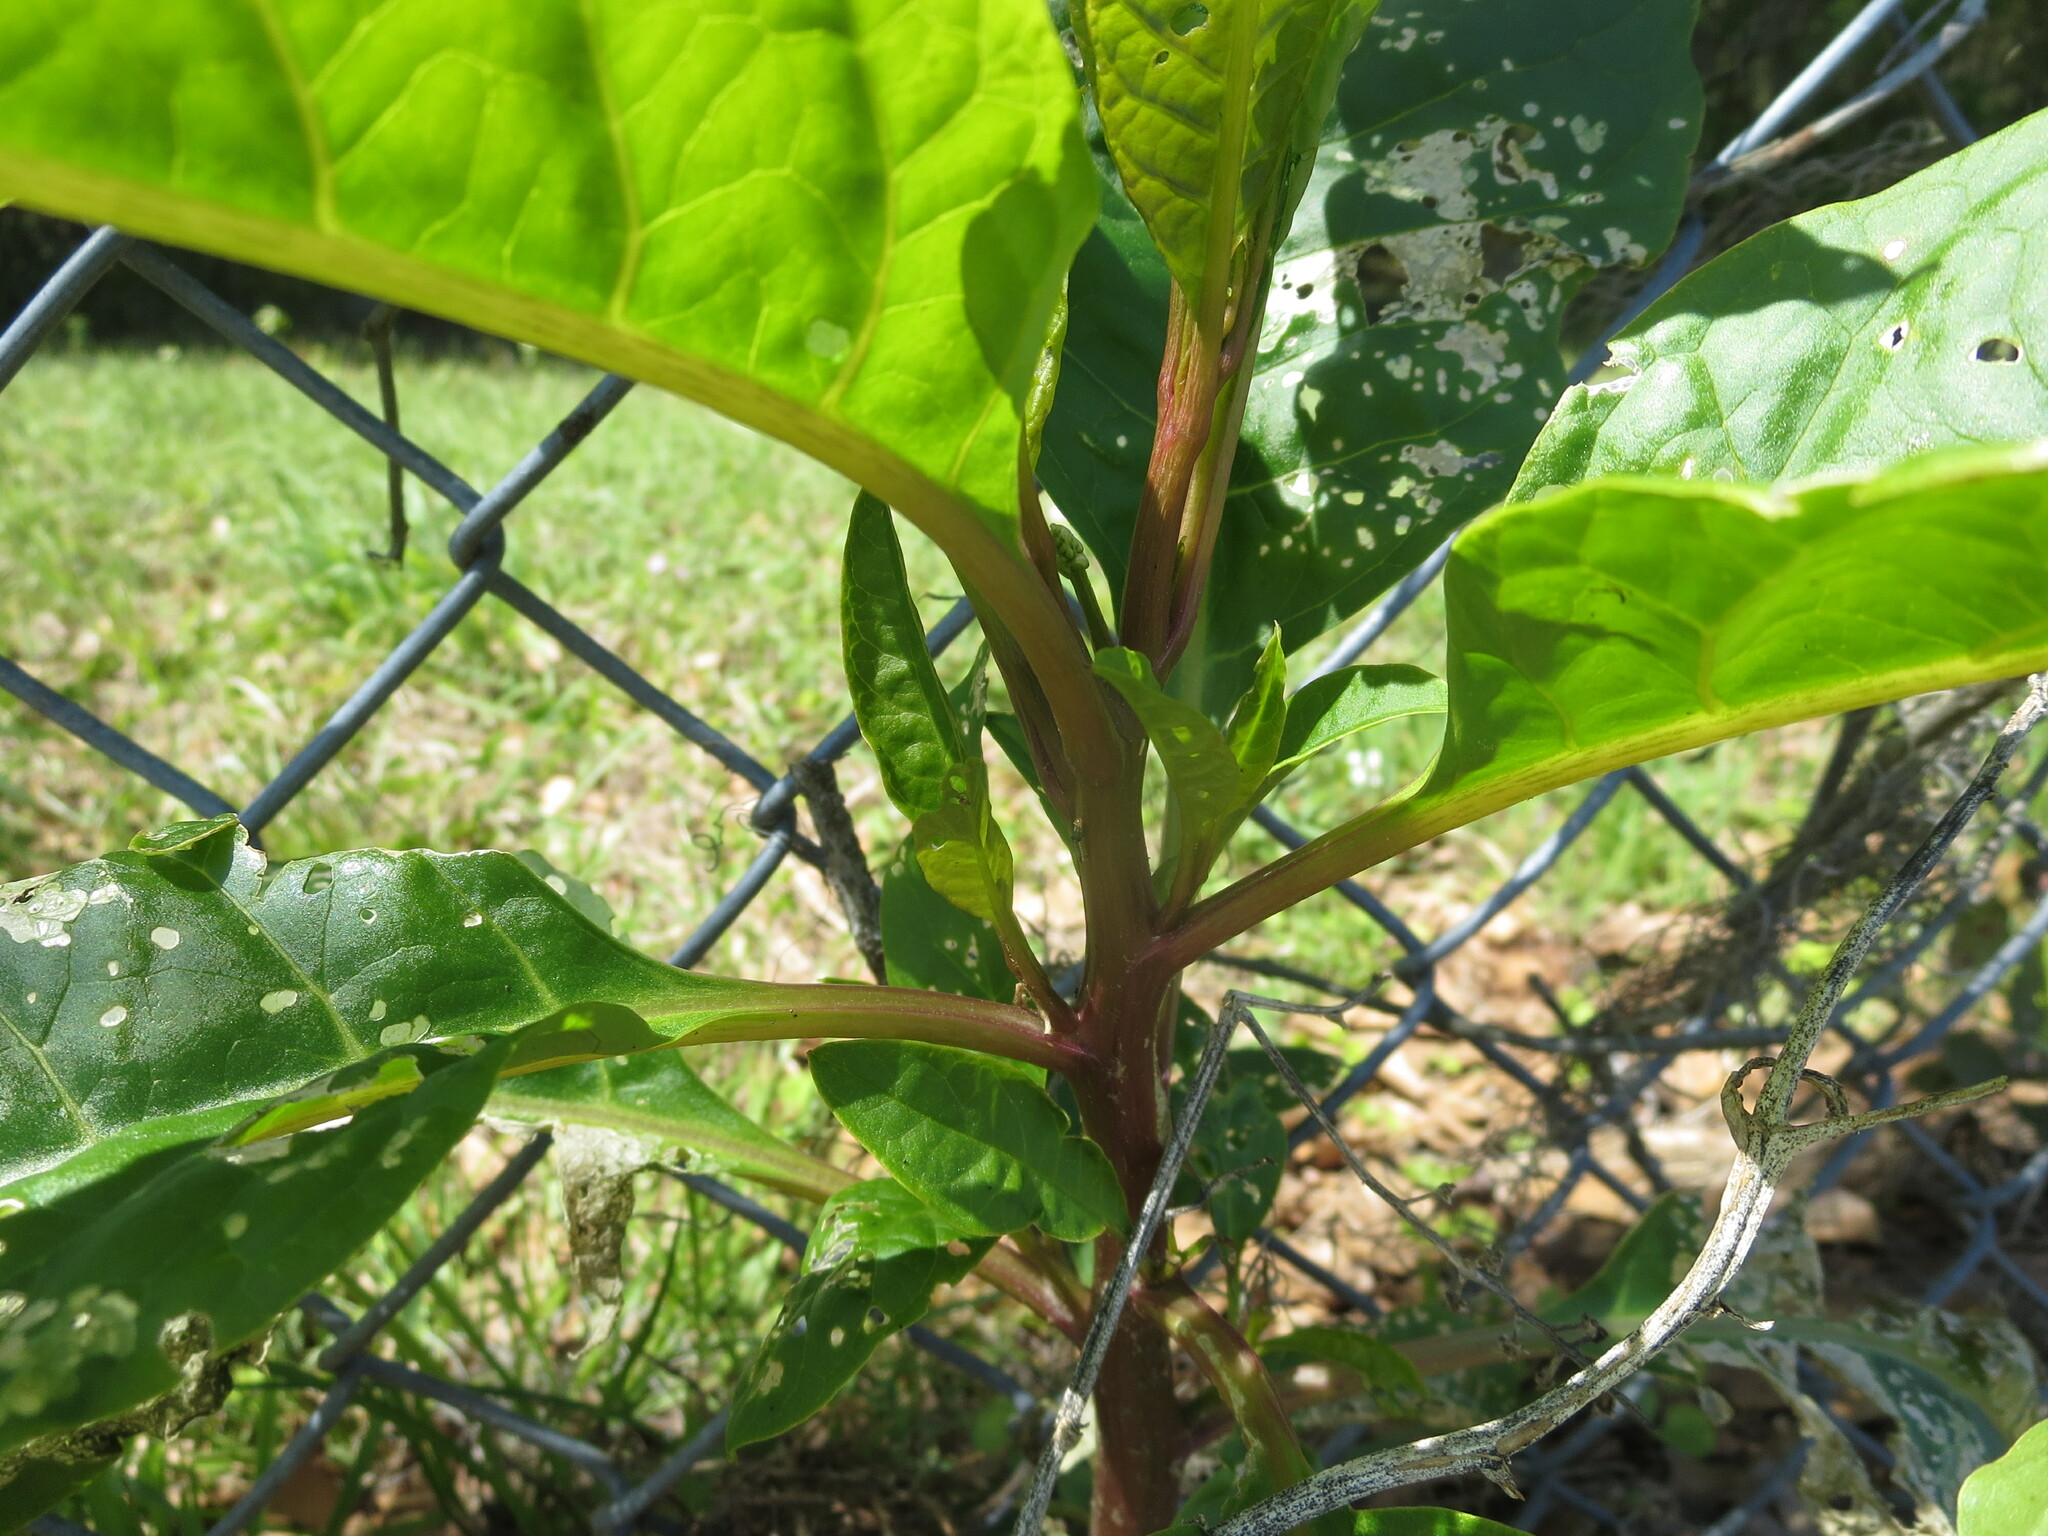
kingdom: Plantae
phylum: Tracheophyta
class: Magnoliopsida
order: Caryophyllales
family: Phytolaccaceae
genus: Phytolacca
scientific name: Phytolacca americana
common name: American pokeweed
